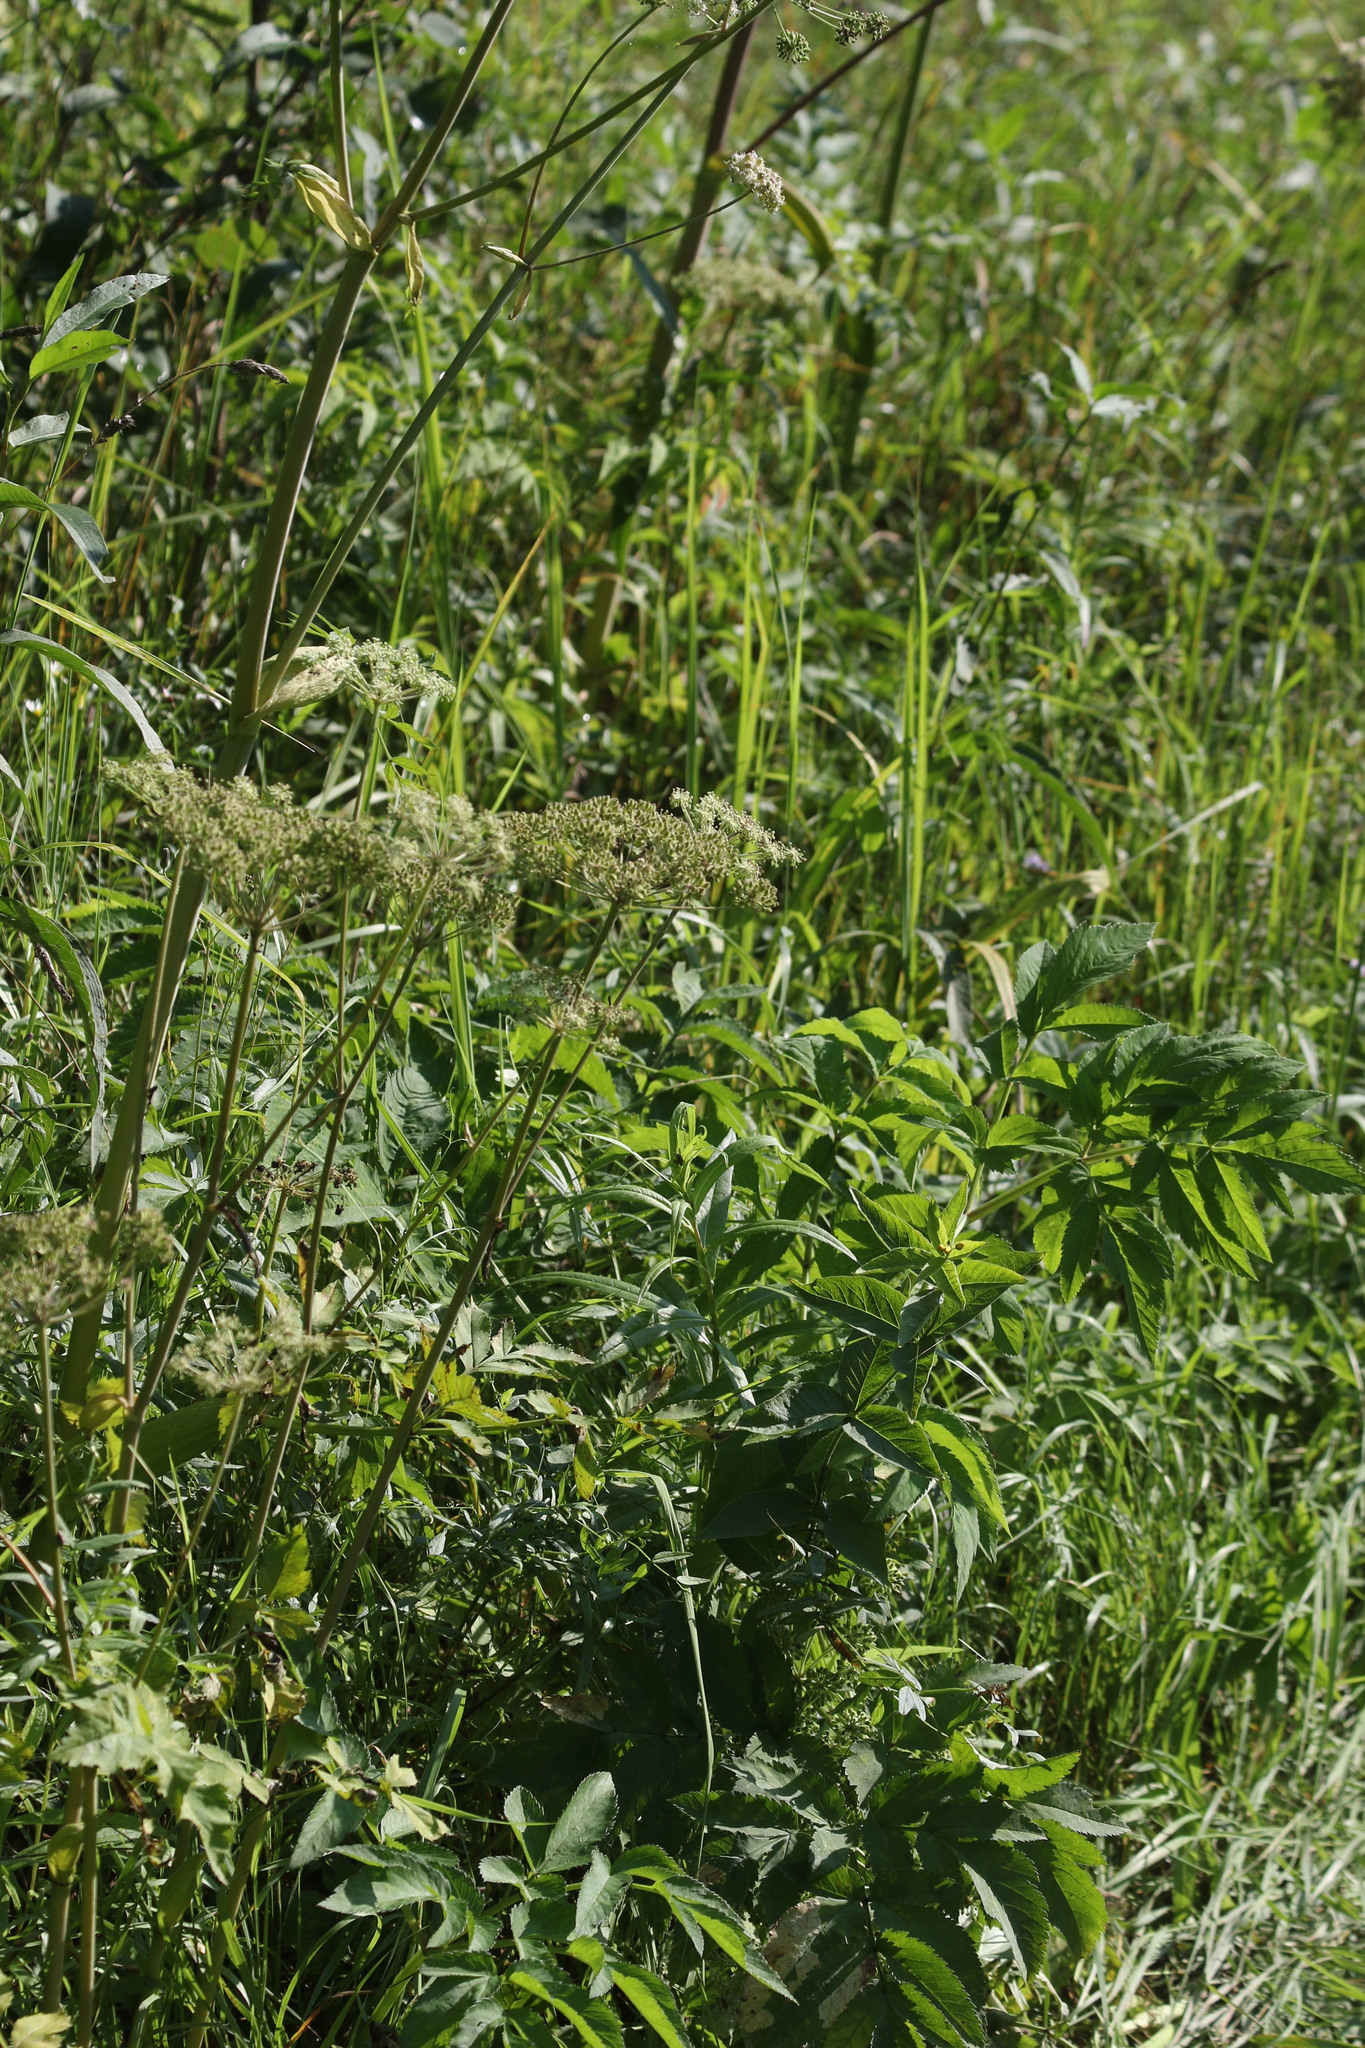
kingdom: Plantae
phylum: Tracheophyta
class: Magnoliopsida
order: Apiales
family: Apiaceae
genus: Angelica
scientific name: Angelica sylvestris
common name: Wild angelica
